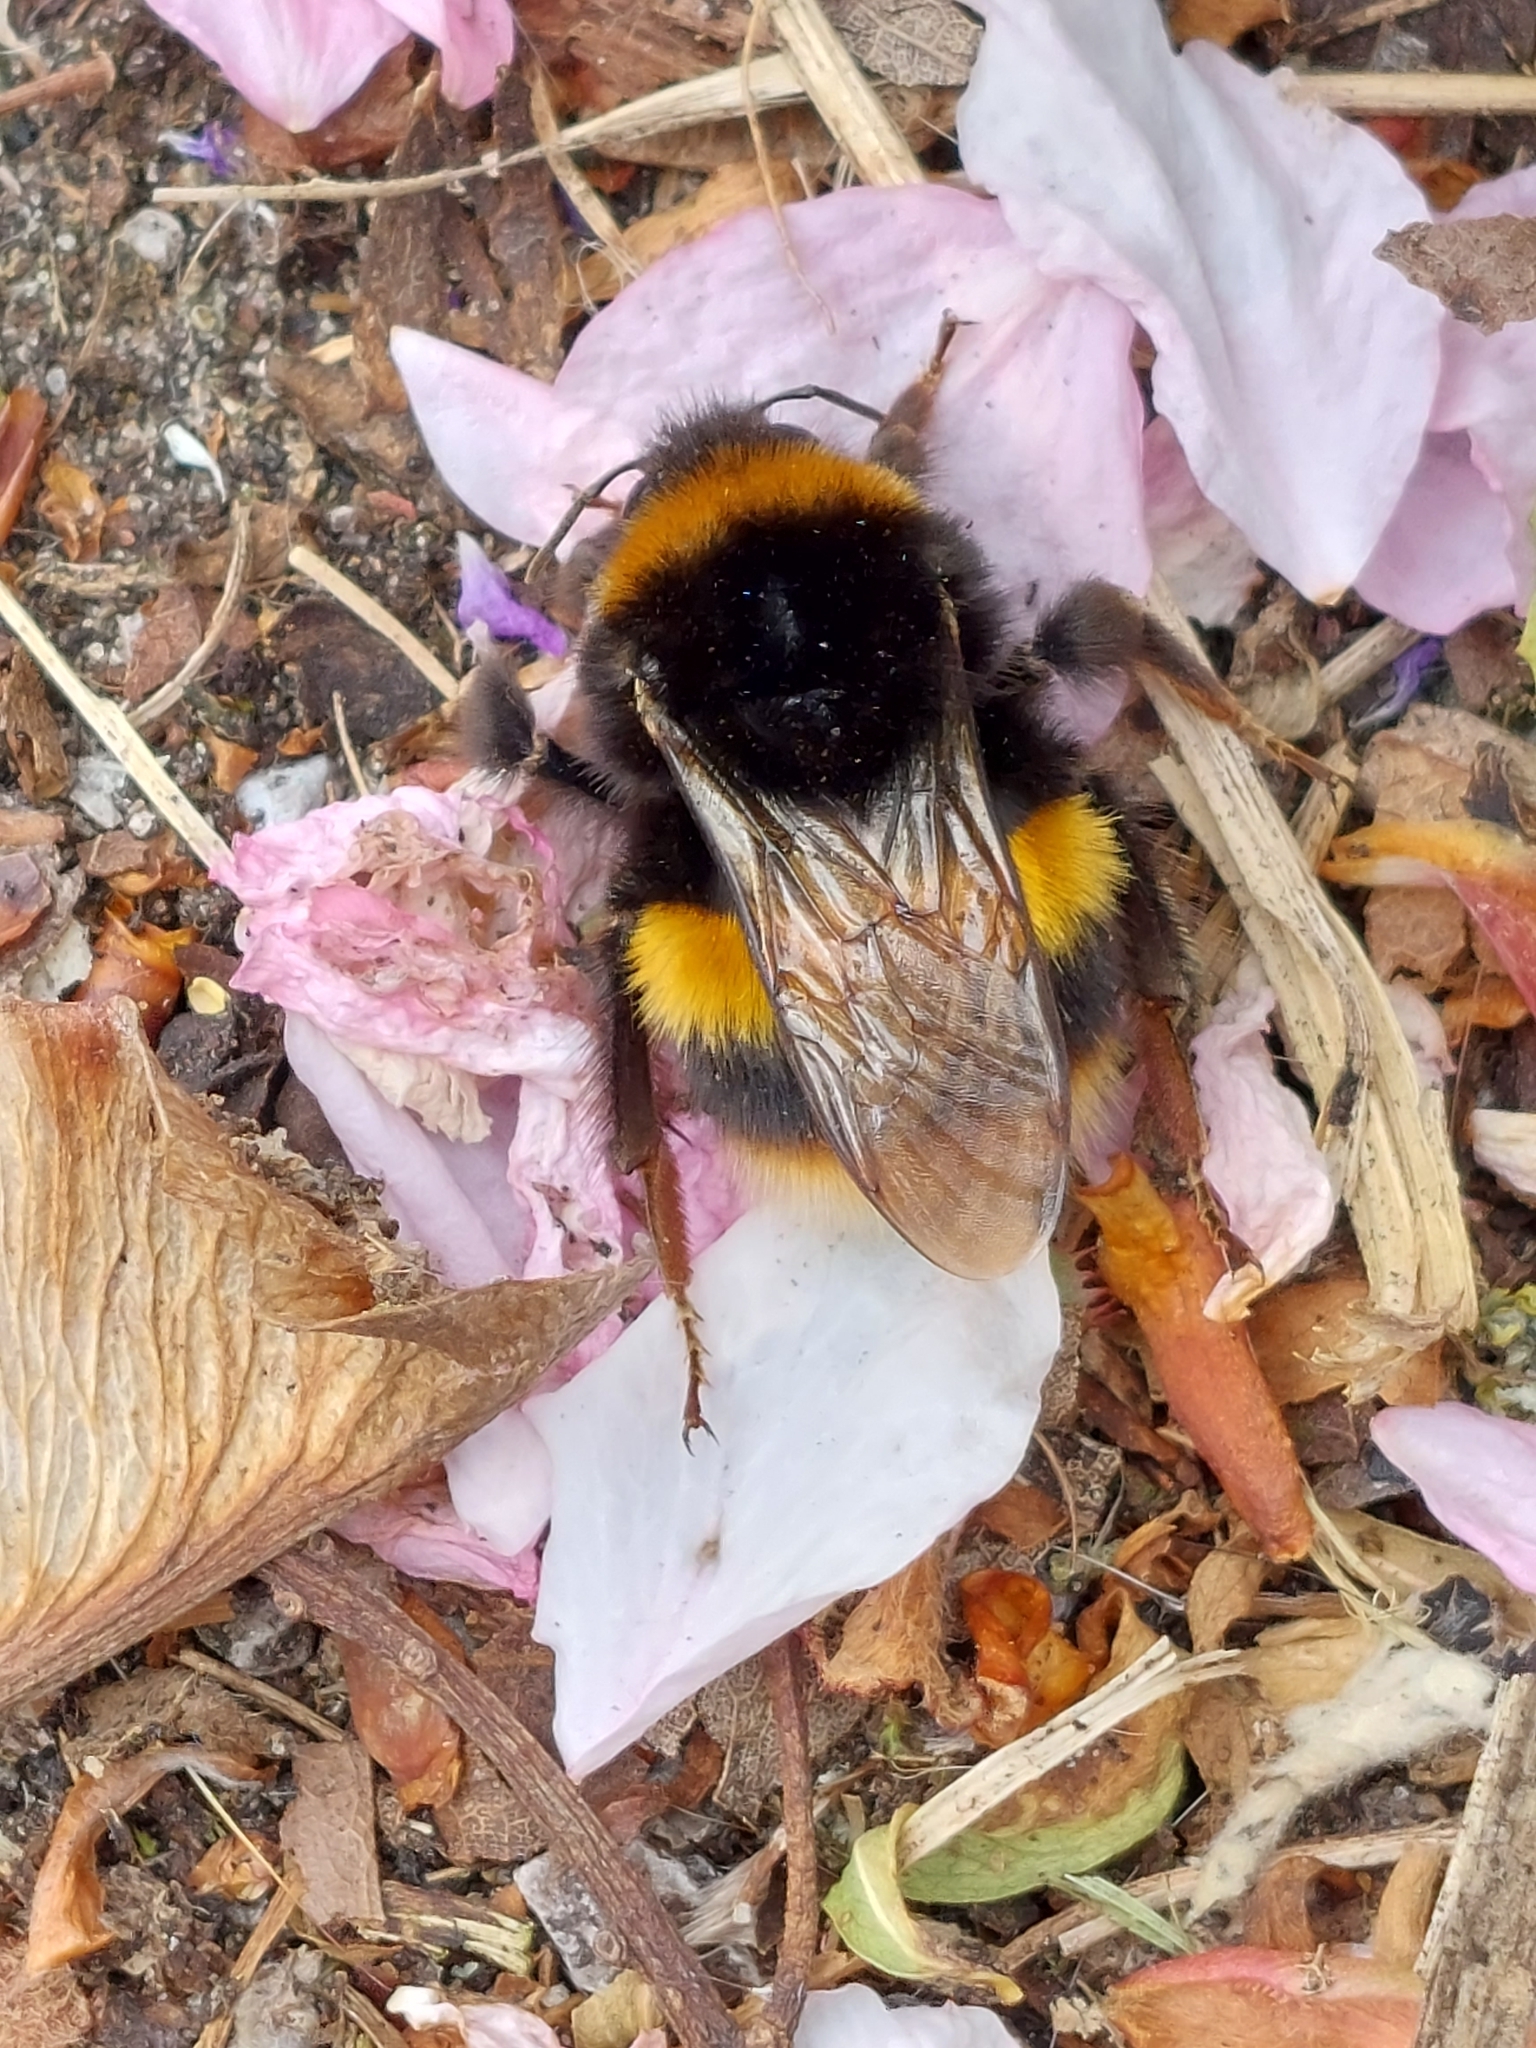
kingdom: Animalia
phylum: Arthropoda
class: Insecta
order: Hymenoptera
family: Apidae
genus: Bombus
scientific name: Bombus terrestris
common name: Buff-tailed bumblebee
